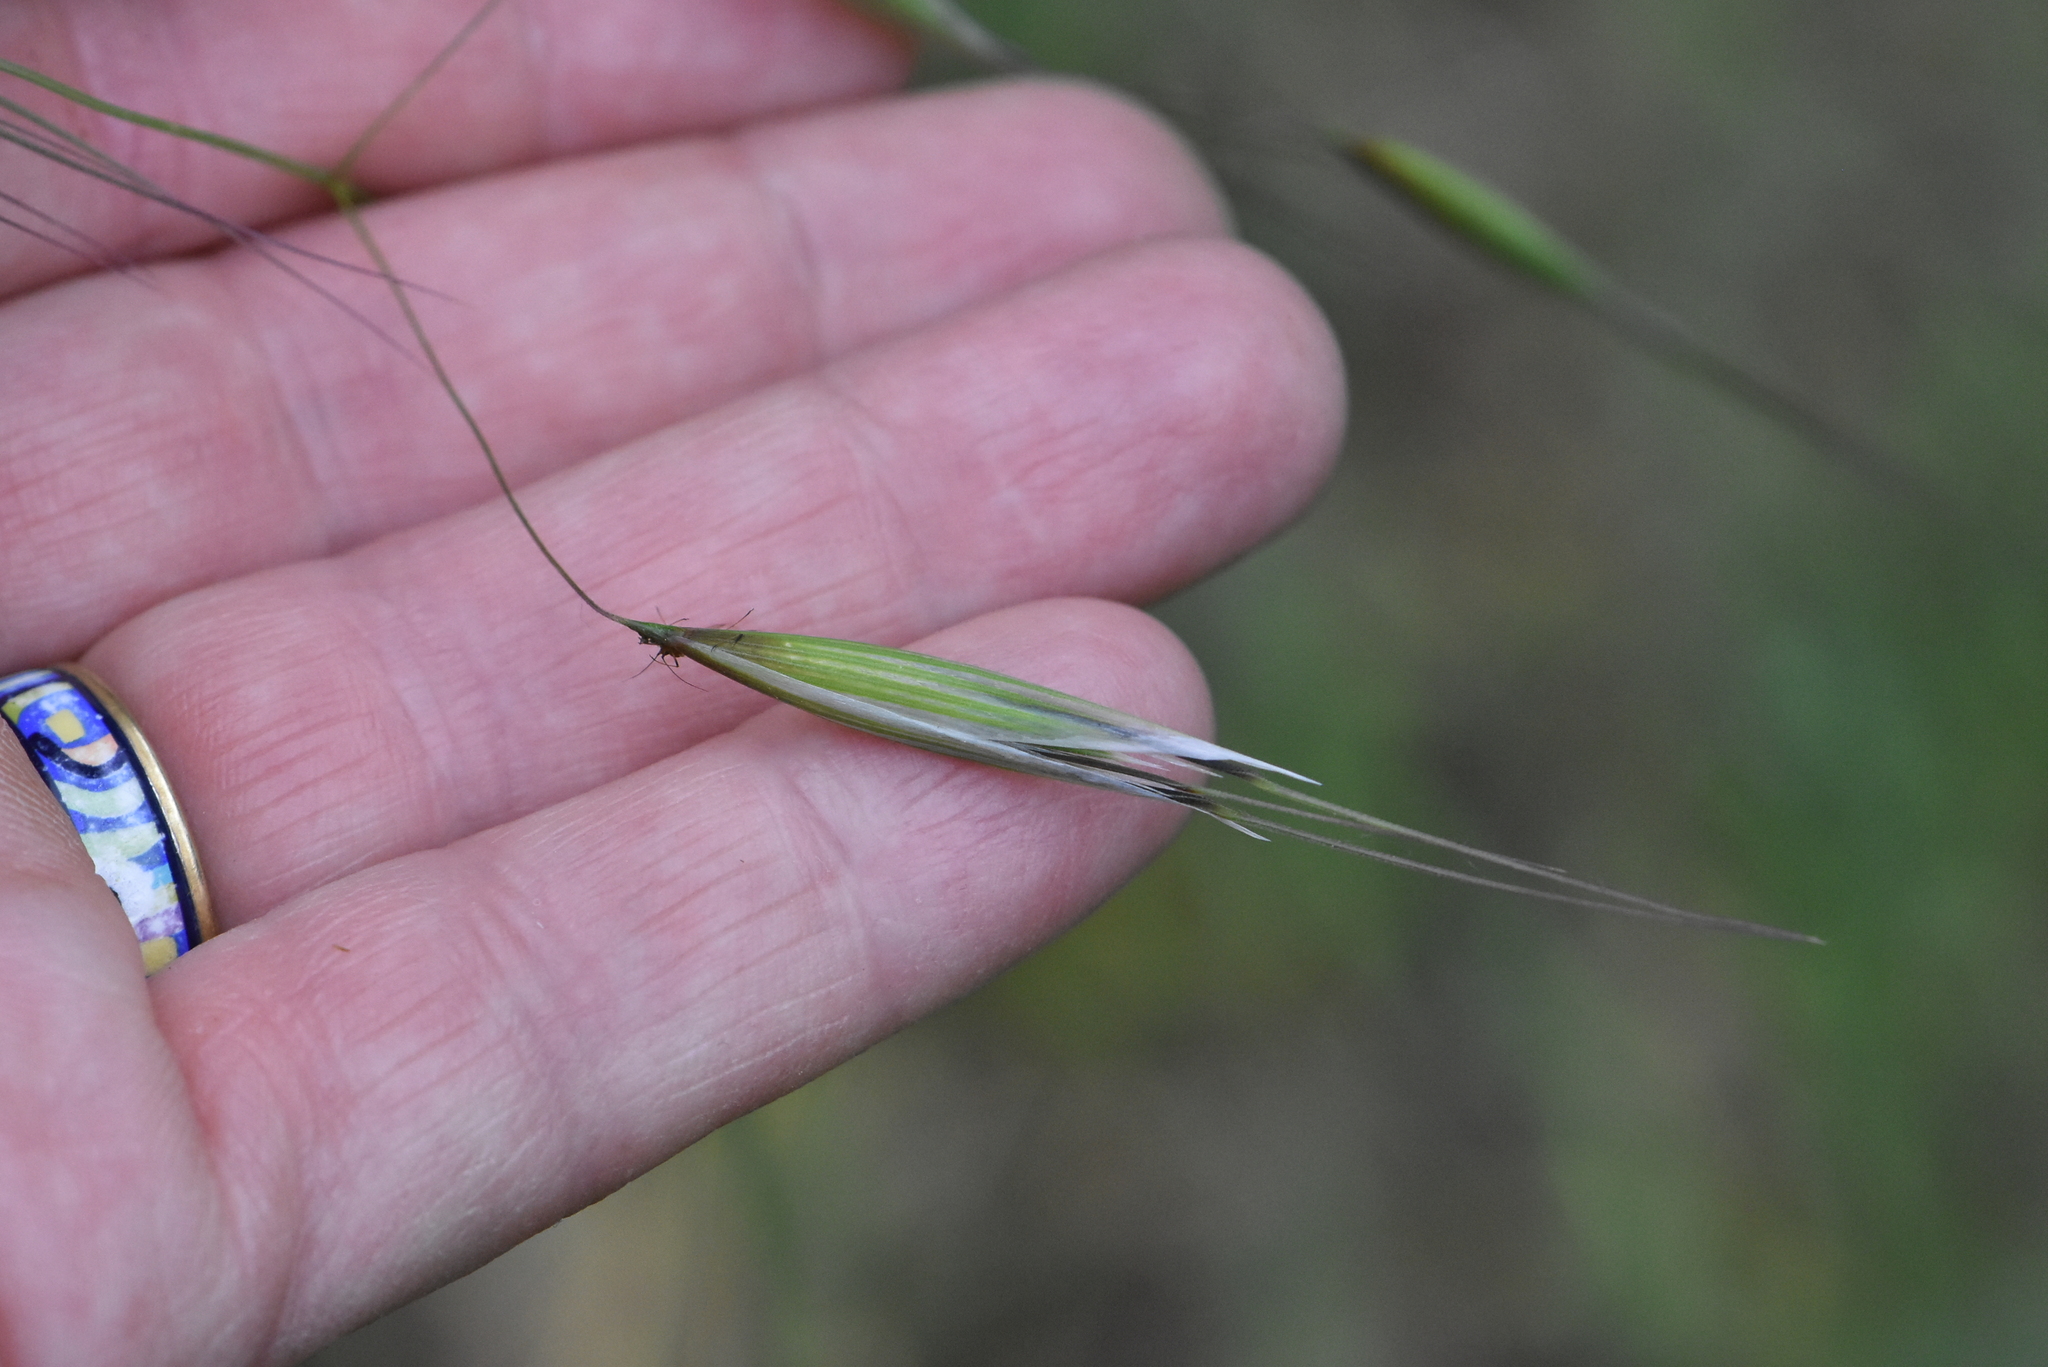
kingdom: Plantae
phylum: Tracheophyta
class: Liliopsida
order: Poales
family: Poaceae
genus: Avena
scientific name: Avena fatua
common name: Wild oat
